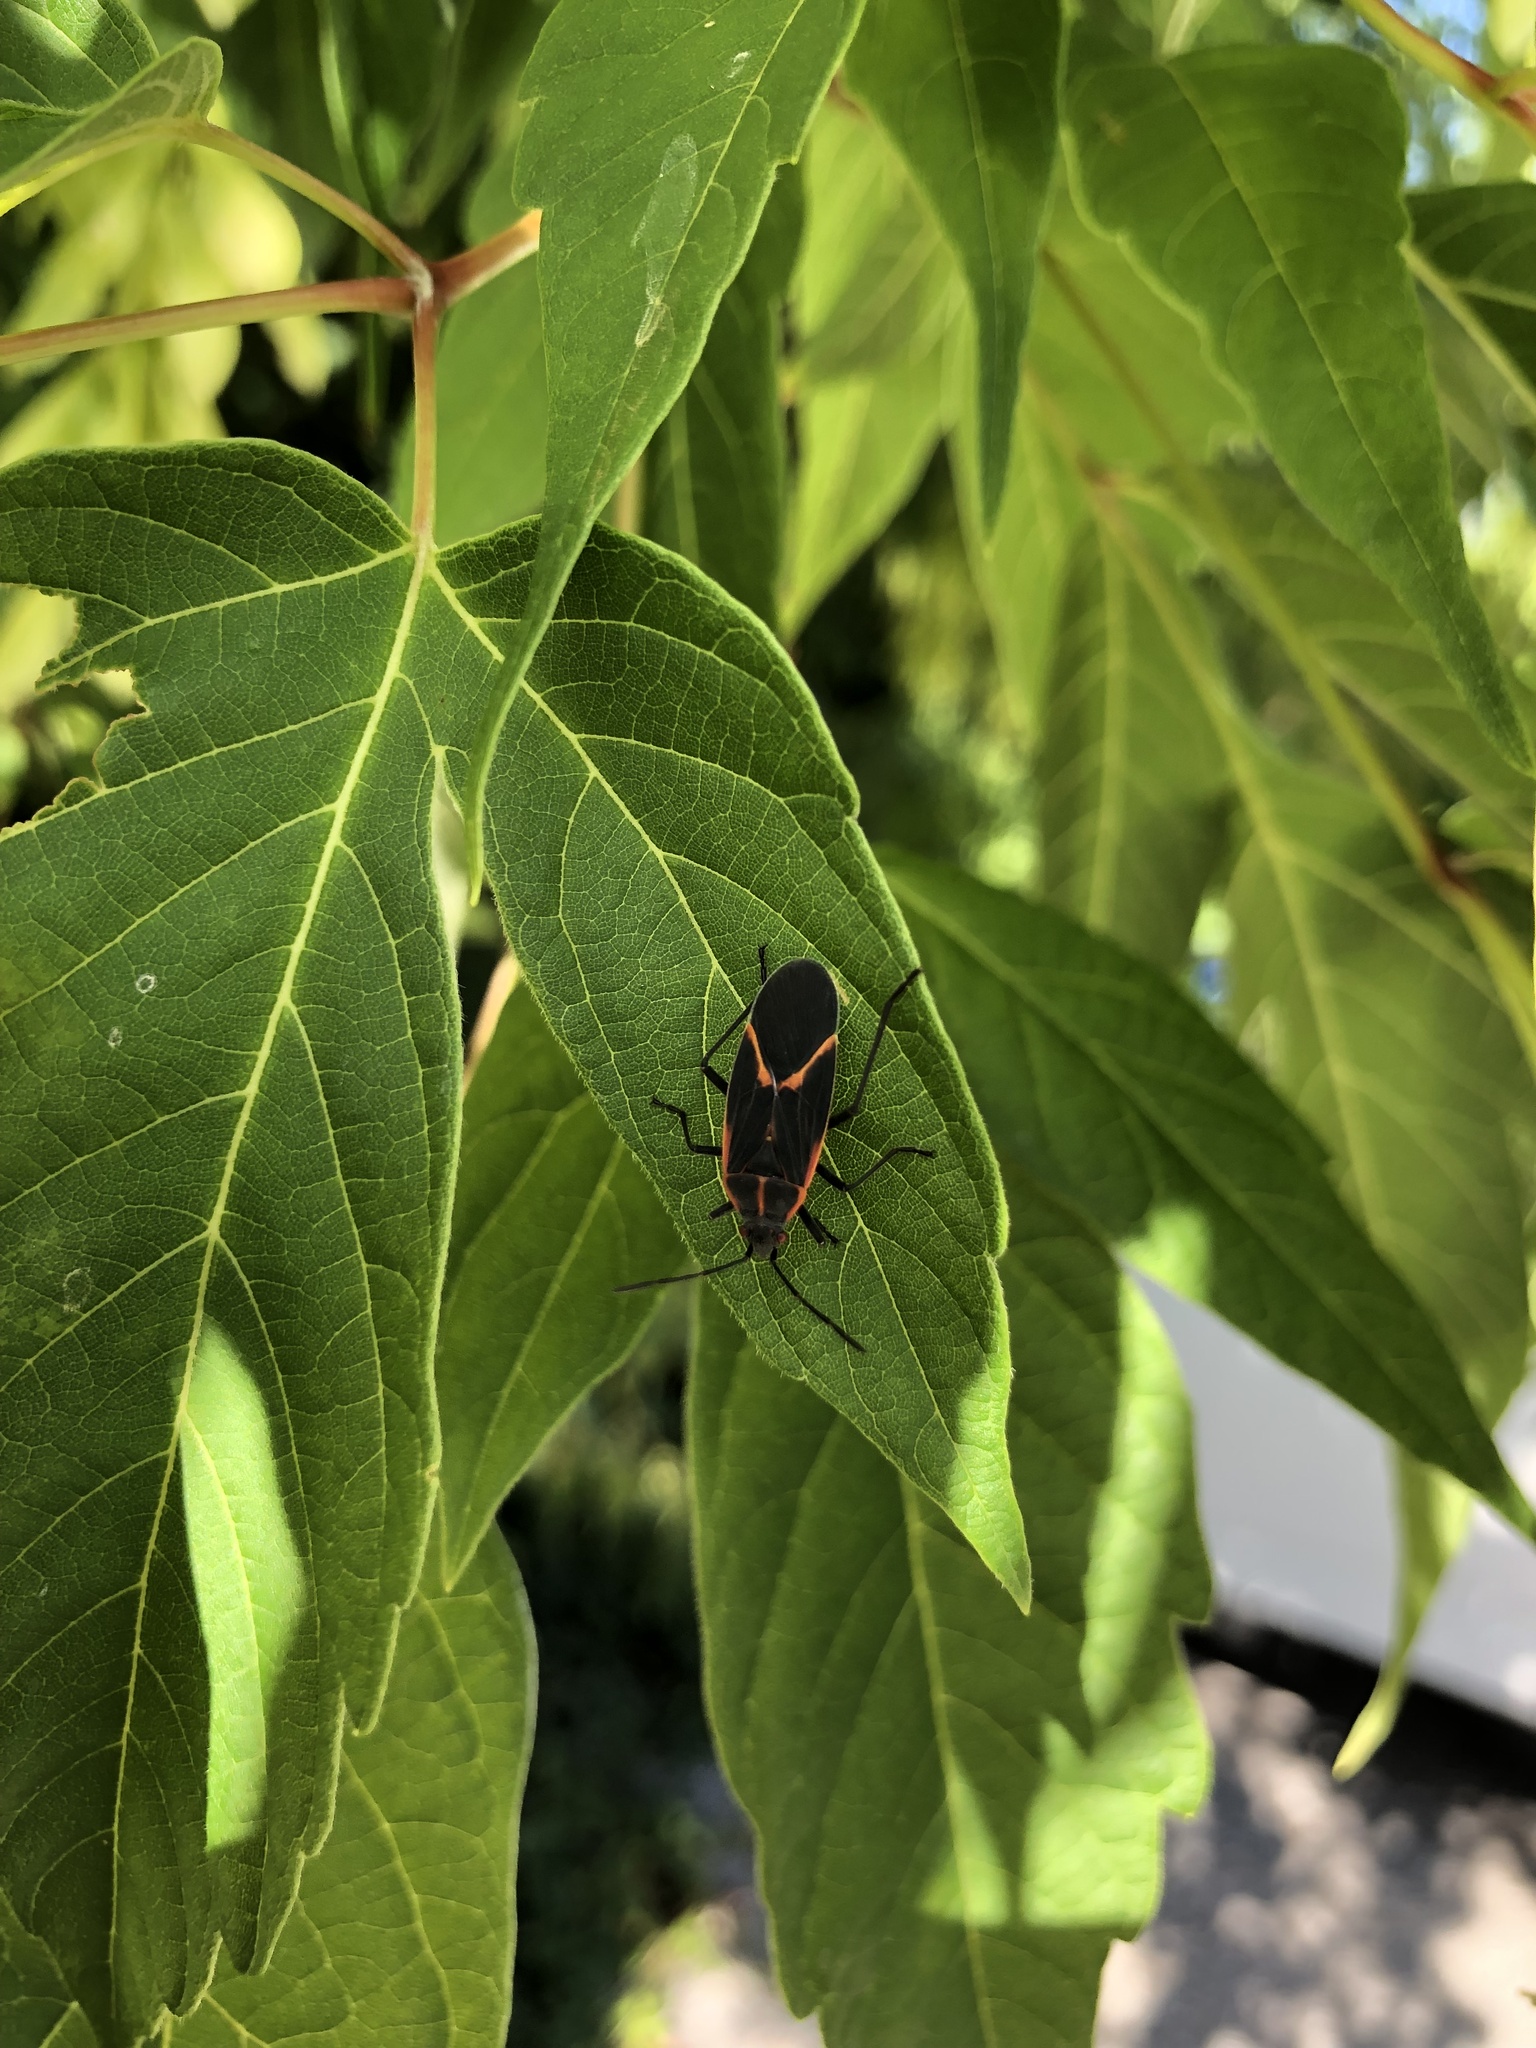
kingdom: Animalia
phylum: Arthropoda
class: Insecta
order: Hemiptera
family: Rhopalidae
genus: Boisea
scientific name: Boisea trivittata
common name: Boxelder bug
